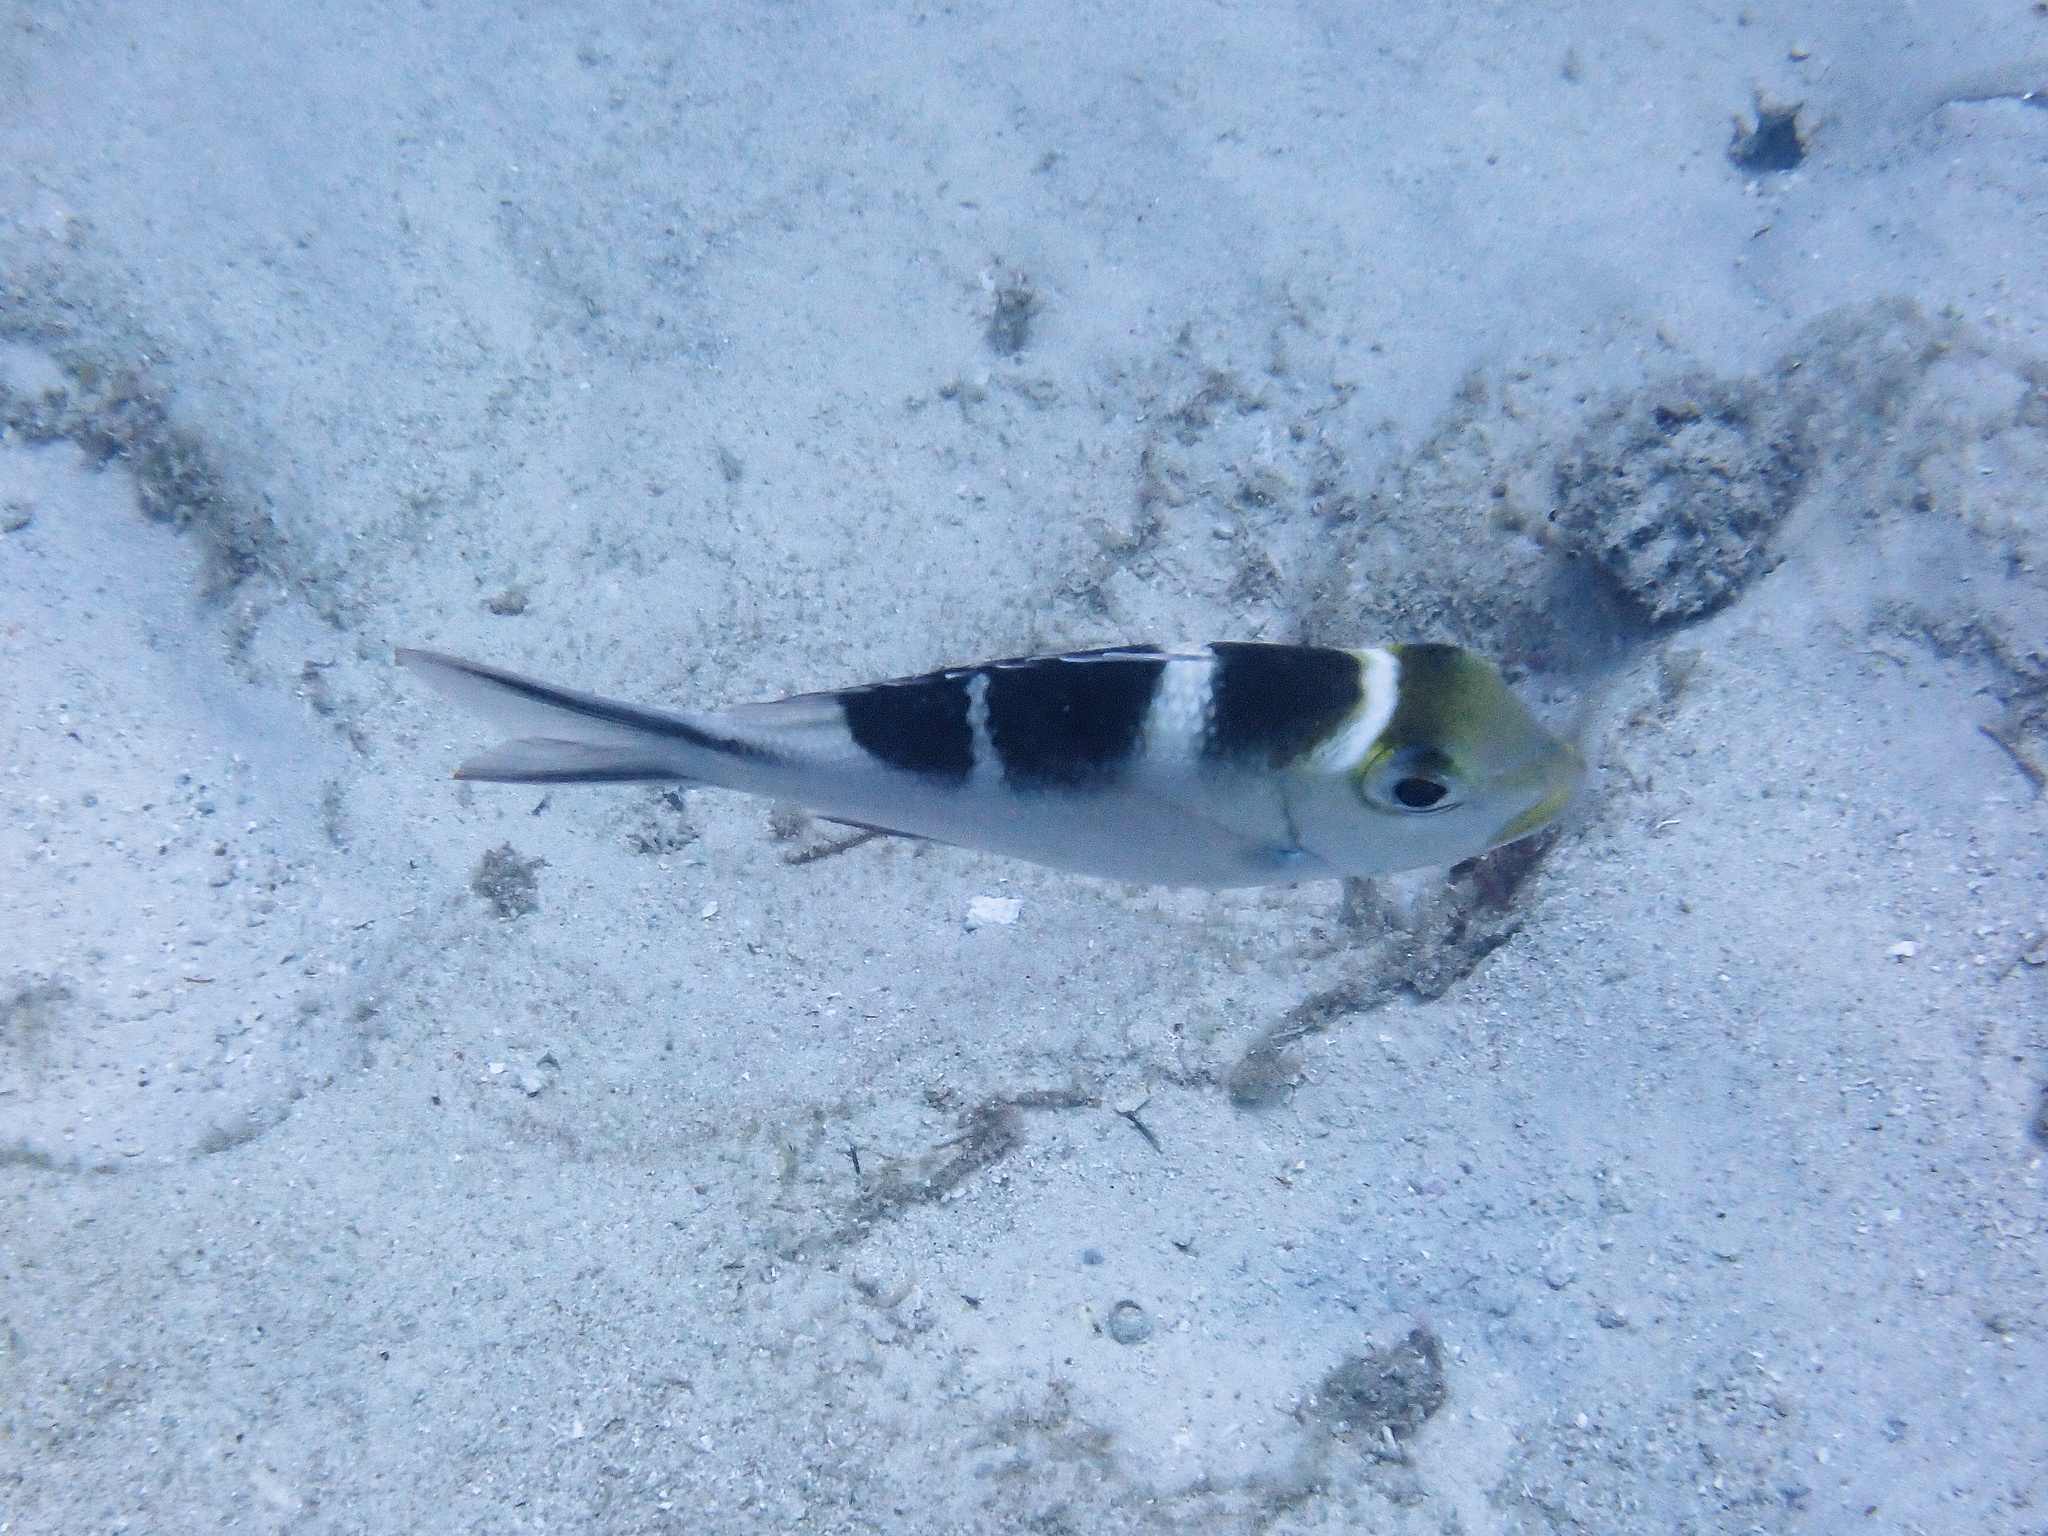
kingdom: Animalia
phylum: Chordata
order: Perciformes
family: Lethrinidae
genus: Monotaxis
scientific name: Monotaxis grandoculis
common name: Bigeye emperor
